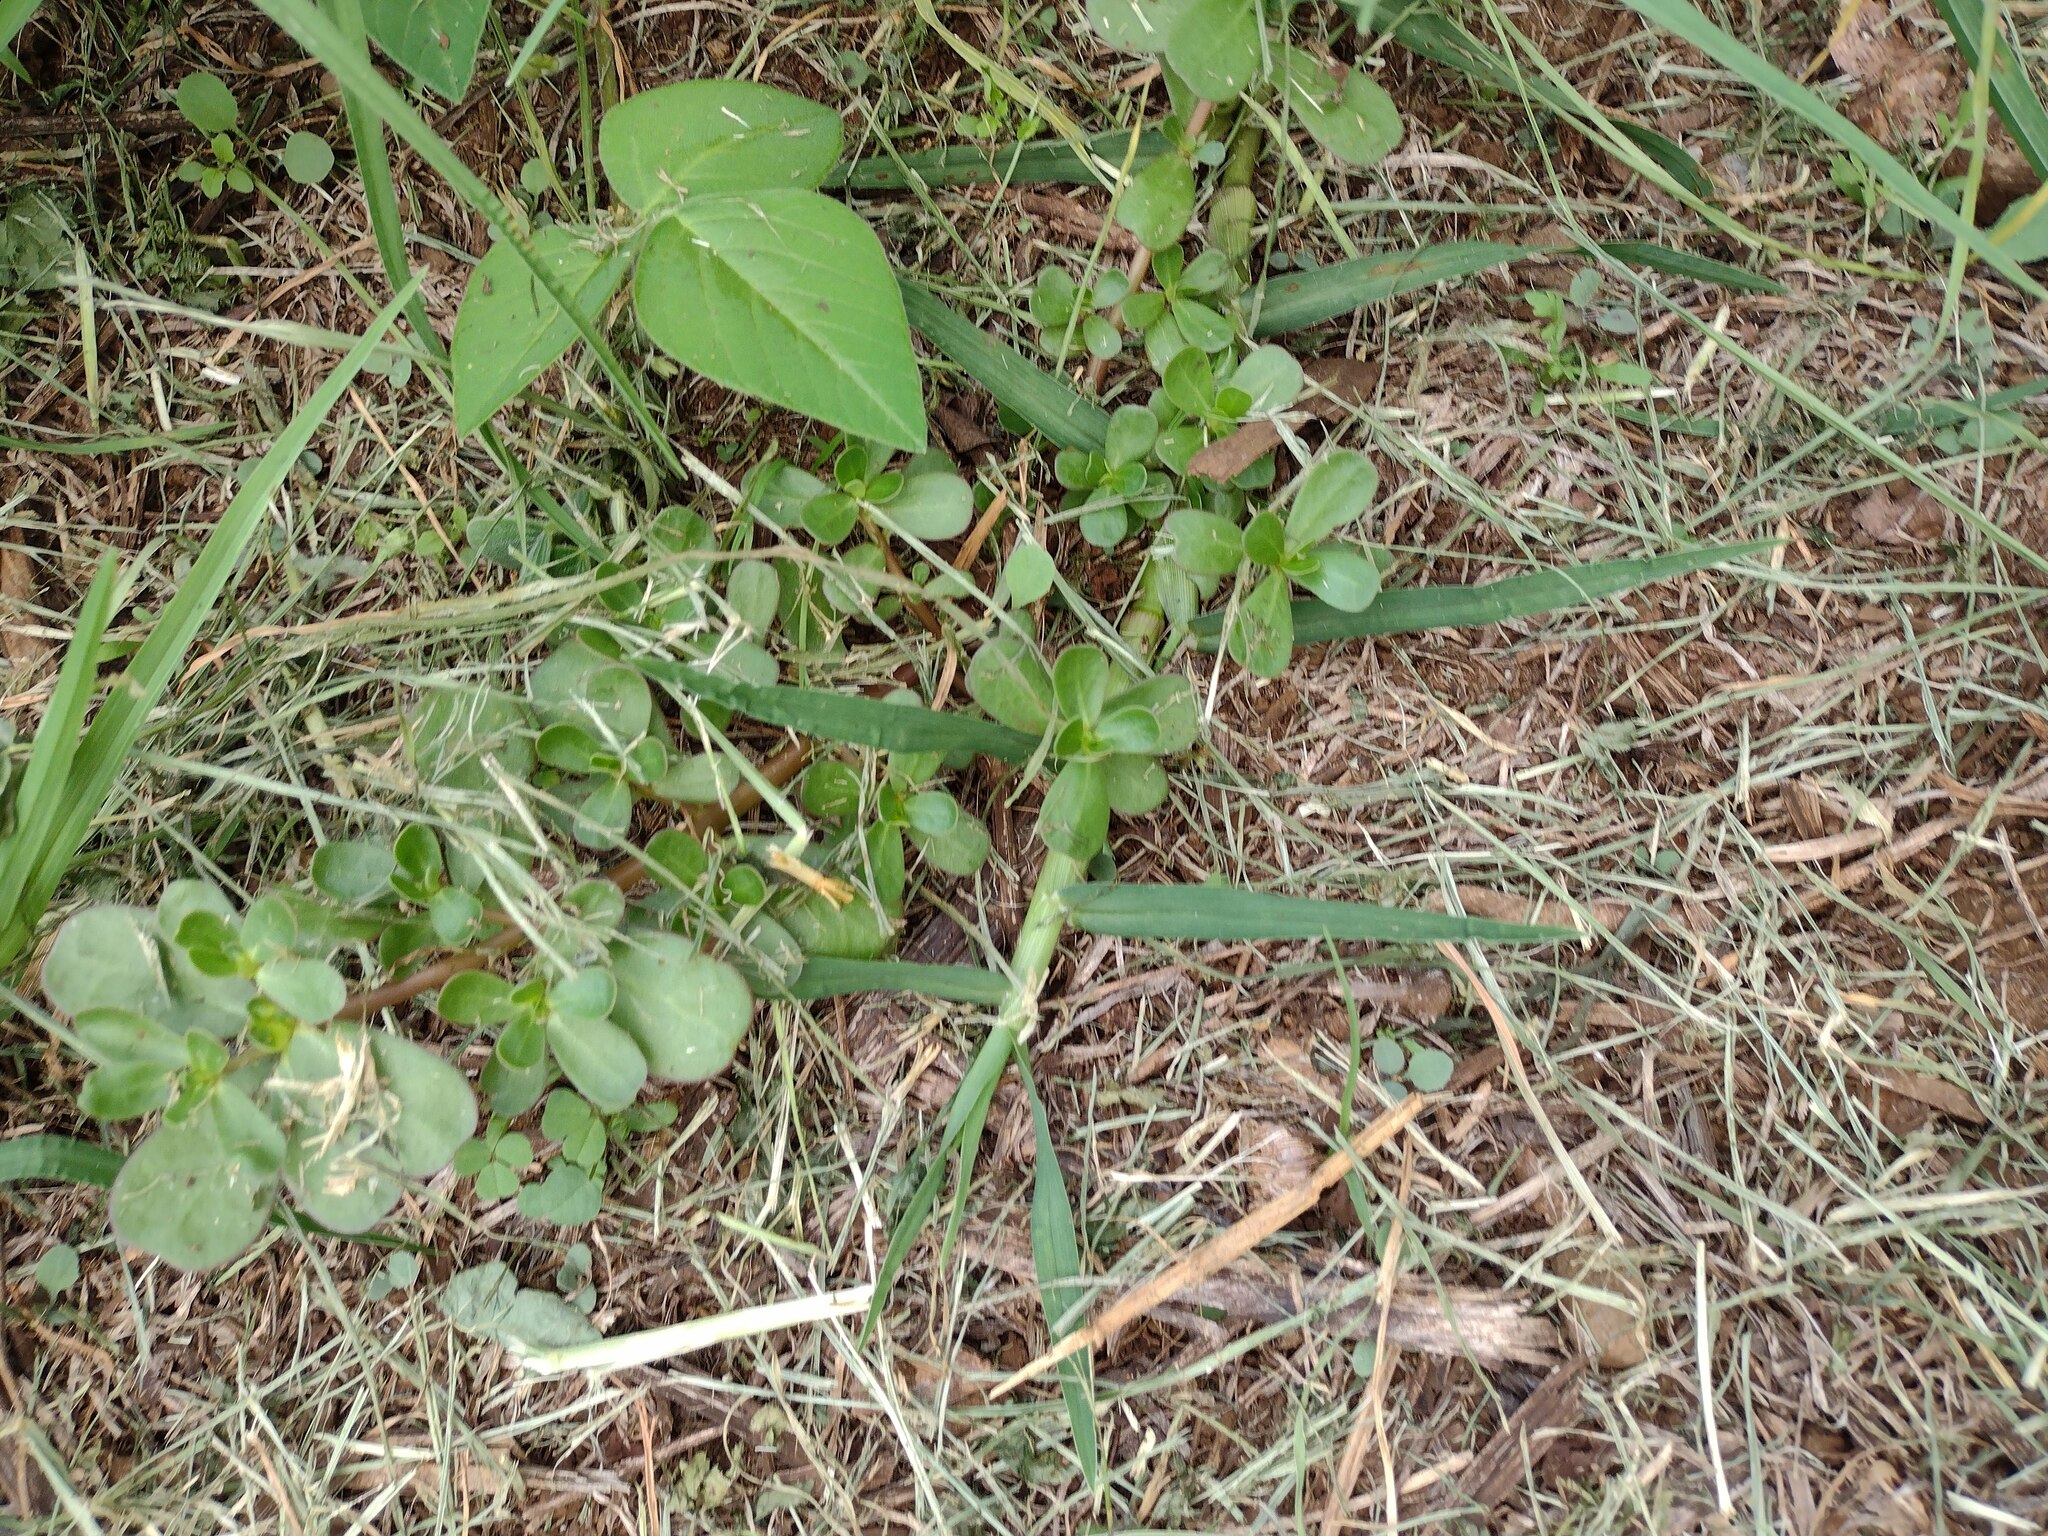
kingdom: Plantae
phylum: Tracheophyta
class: Magnoliopsida
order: Caryophyllales
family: Portulacaceae
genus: Portulaca
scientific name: Portulaca oleracea
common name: Common purslane
